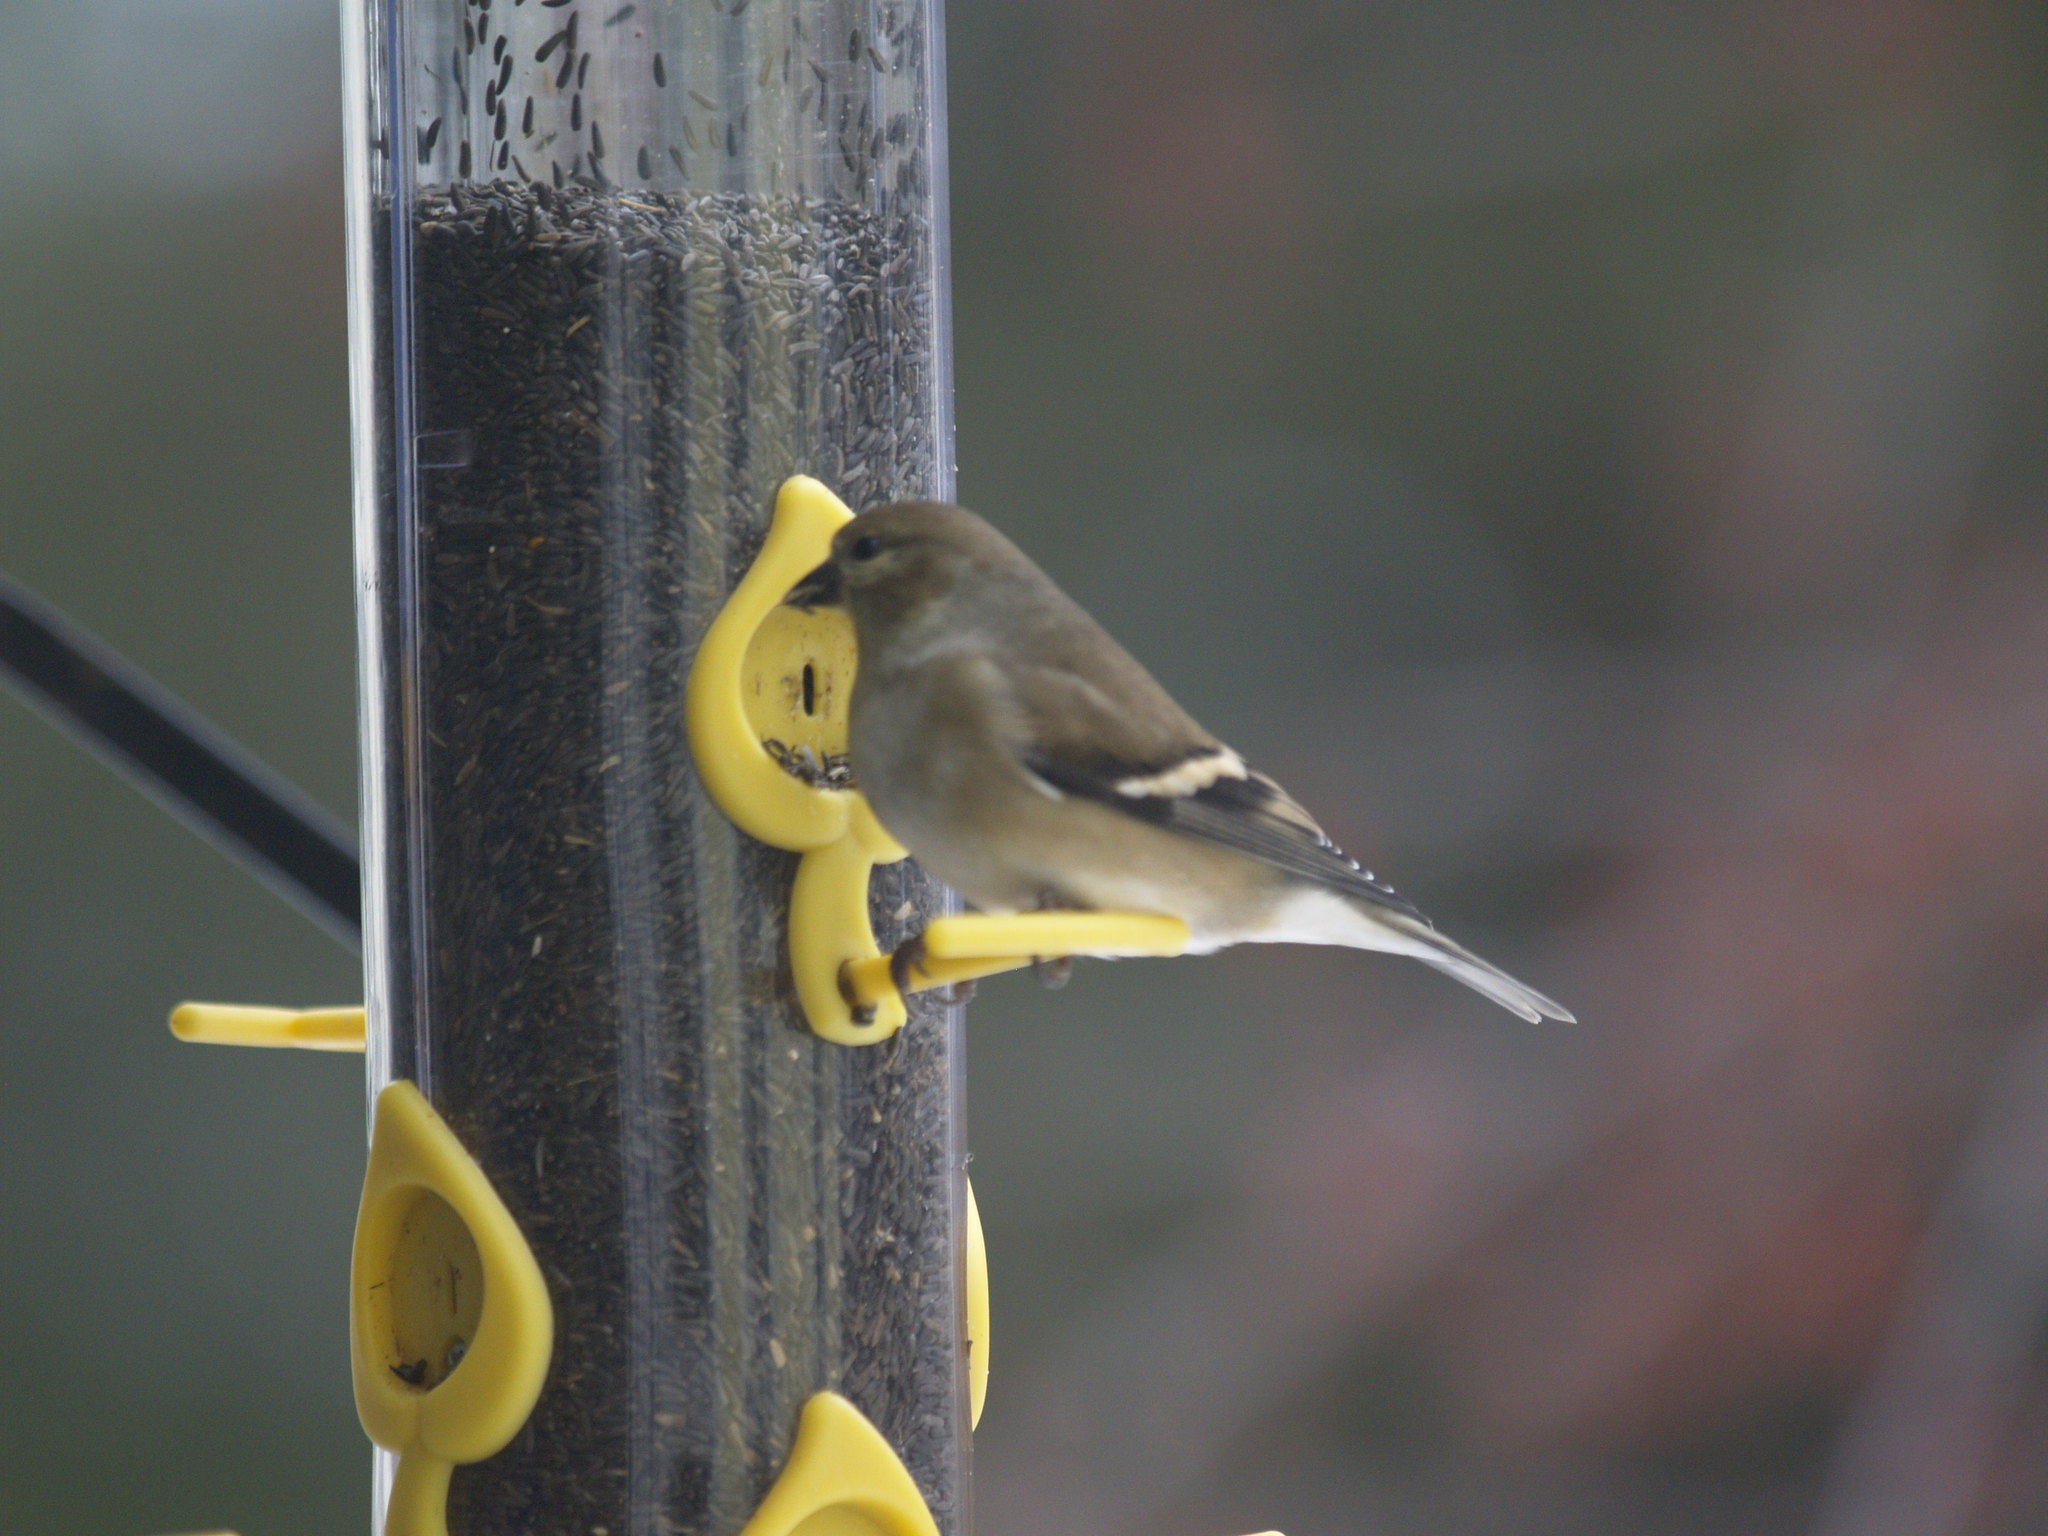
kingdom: Animalia
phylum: Chordata
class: Aves
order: Passeriformes
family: Fringillidae
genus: Spinus
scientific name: Spinus tristis
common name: American goldfinch
